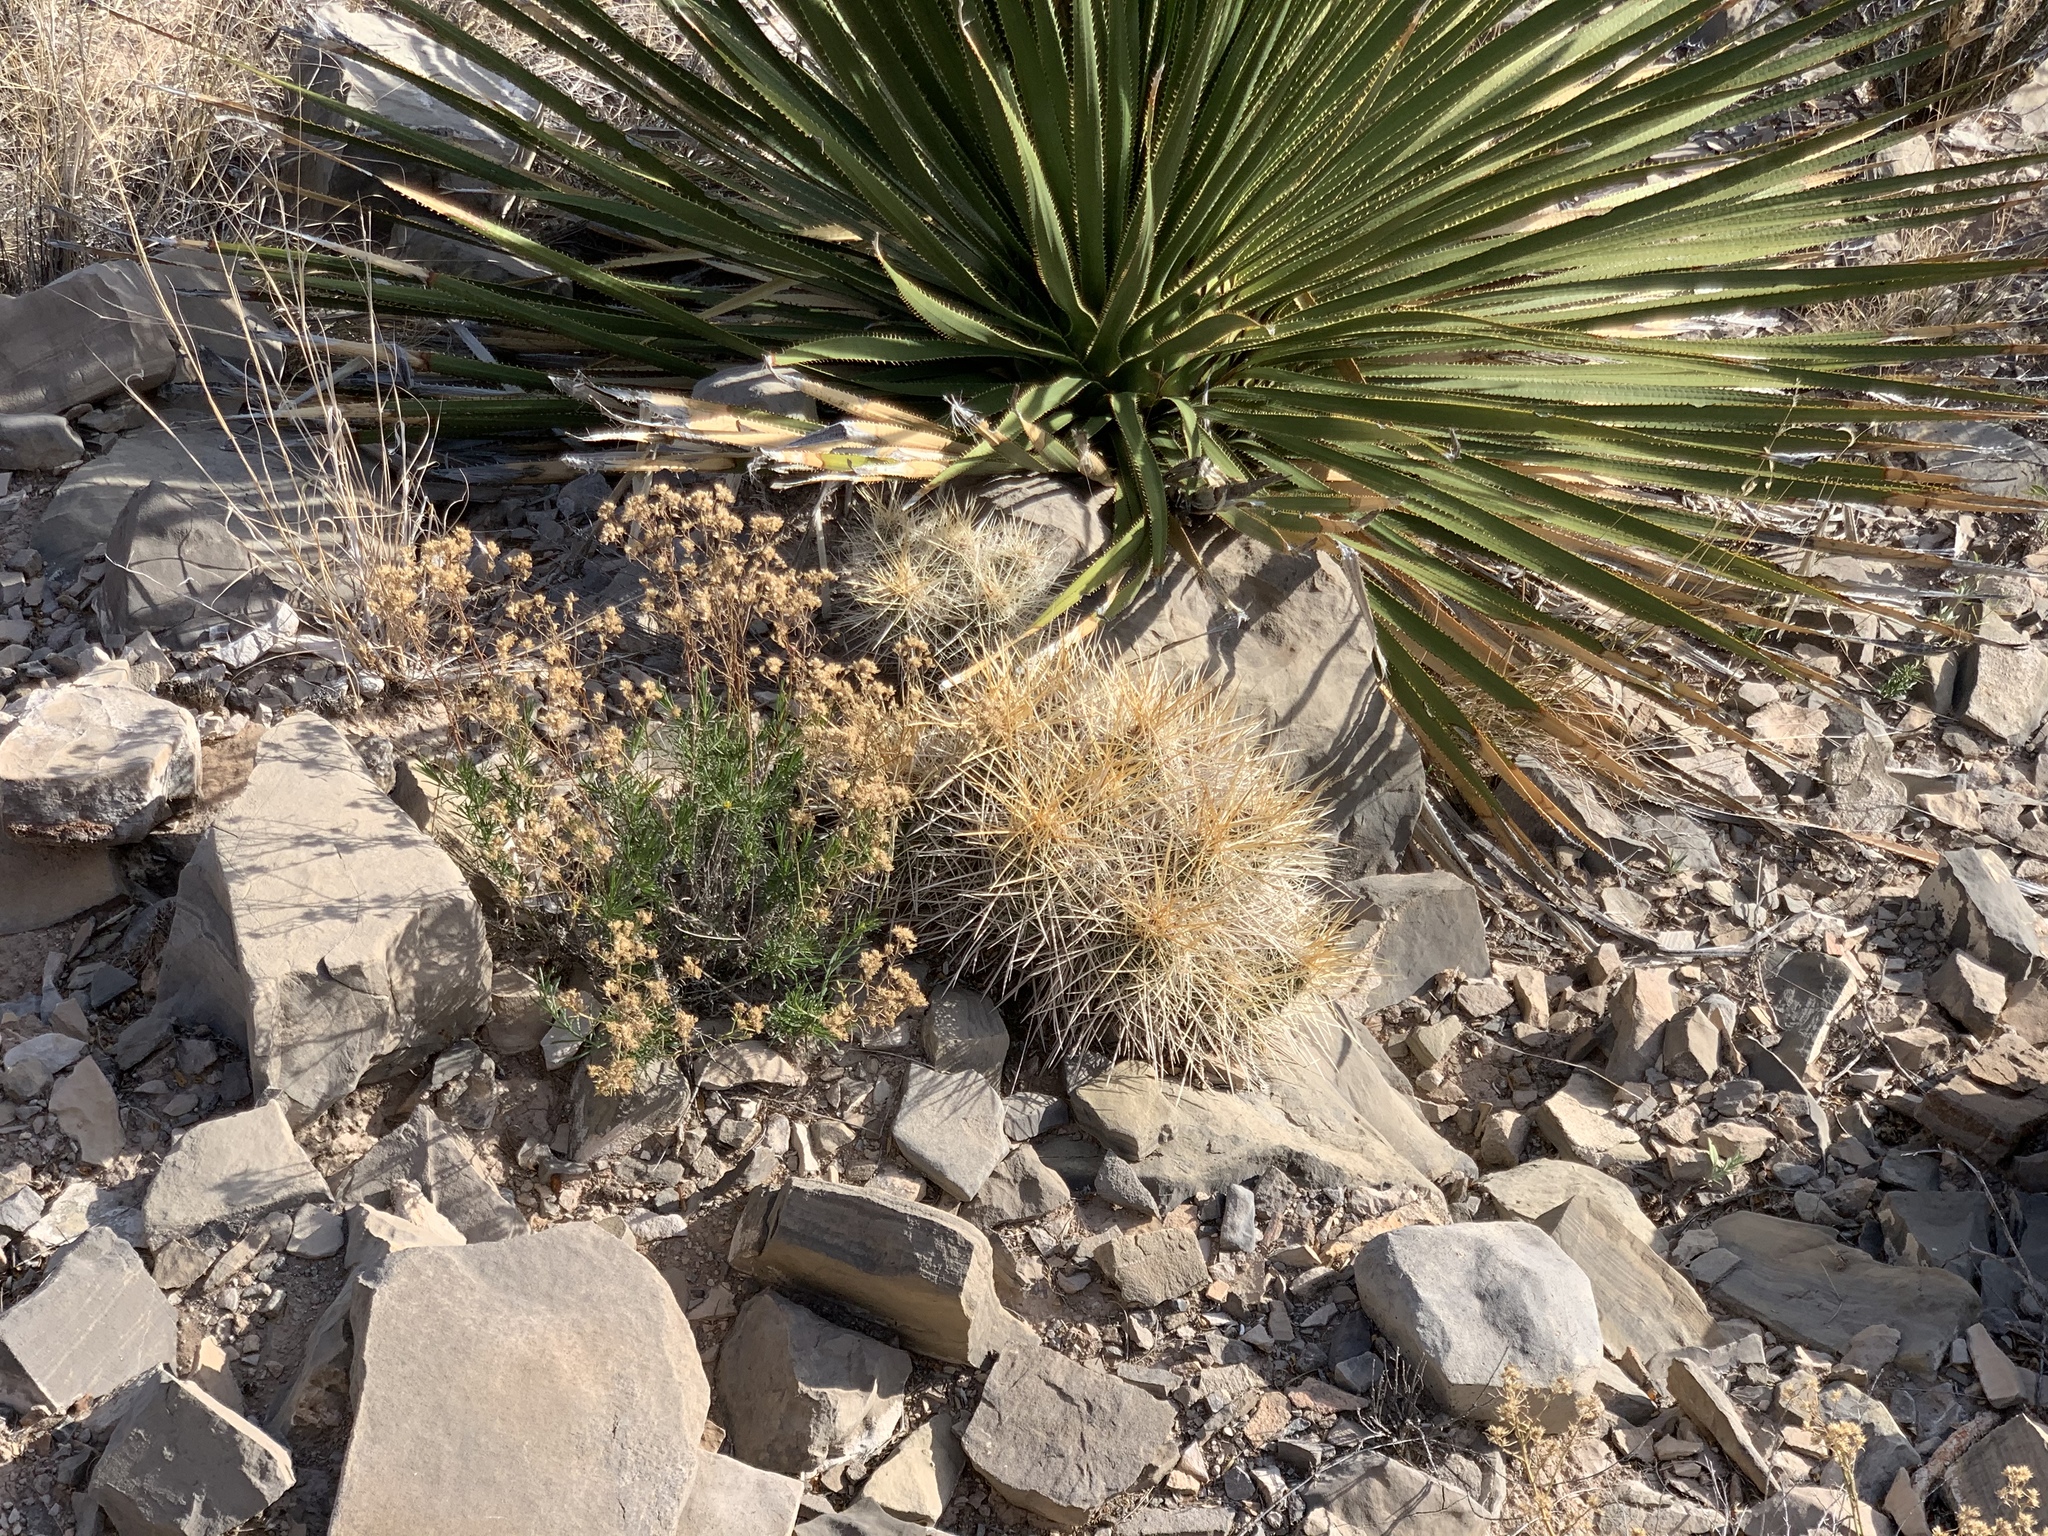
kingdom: Plantae
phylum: Tracheophyta
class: Magnoliopsida
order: Caryophyllales
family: Cactaceae
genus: Echinocereus
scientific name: Echinocereus stramineus
